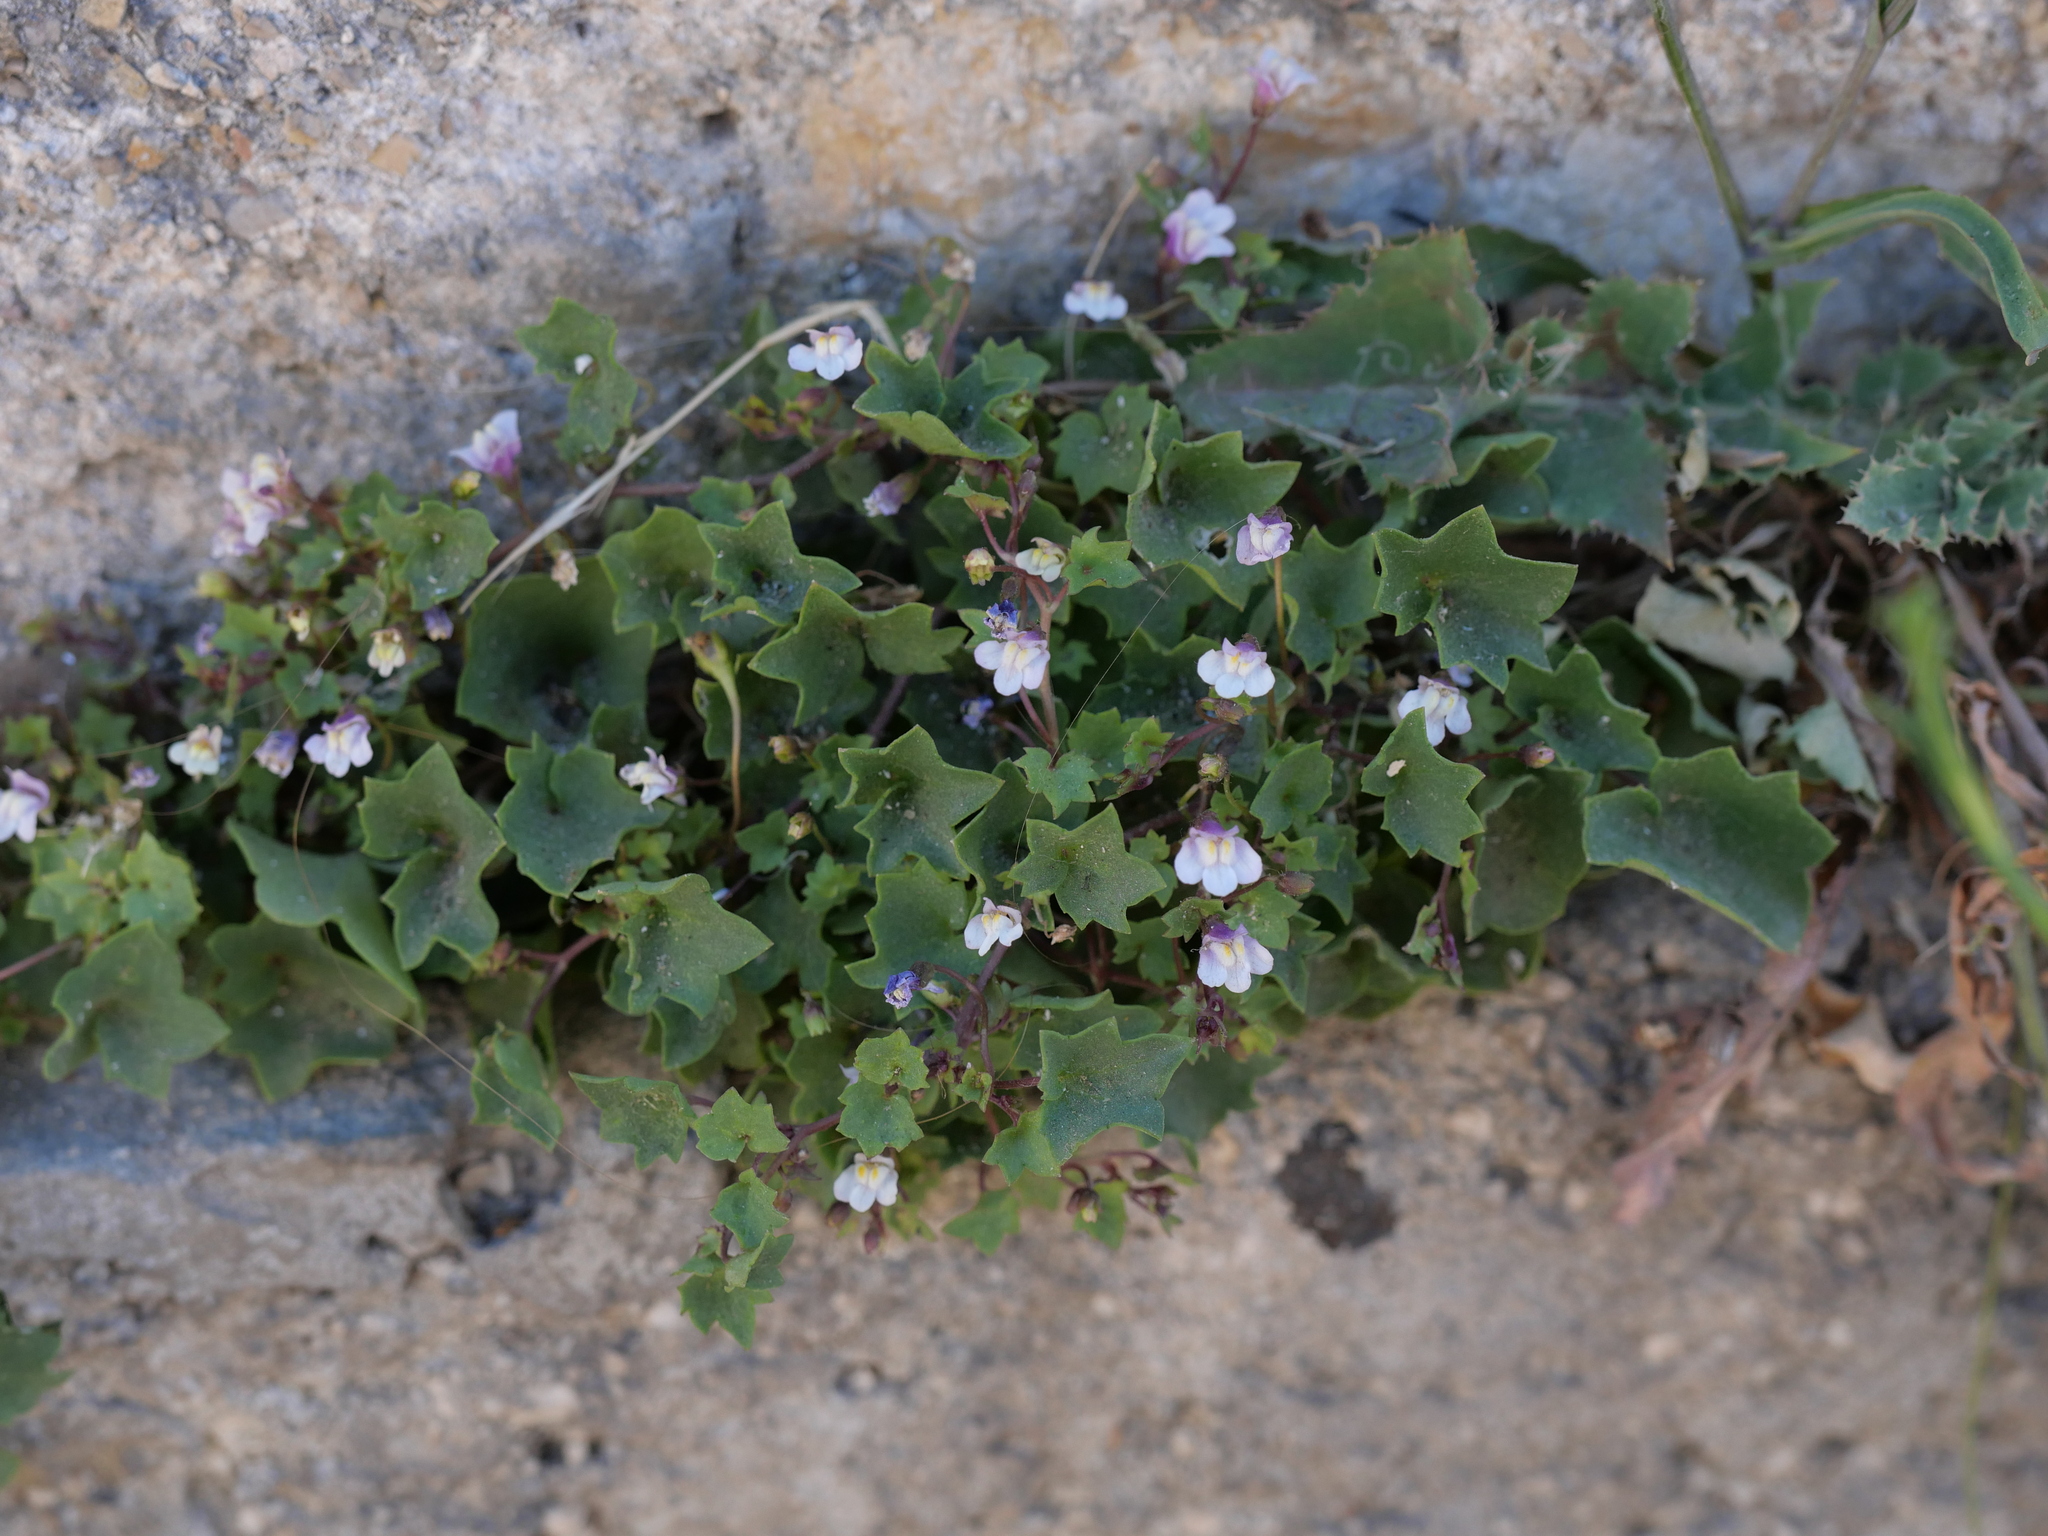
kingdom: Plantae
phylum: Tracheophyta
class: Magnoliopsida
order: Lamiales
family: Plantaginaceae
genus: Cymbalaria
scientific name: Cymbalaria muralis
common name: Ivy-leaved toadflax
